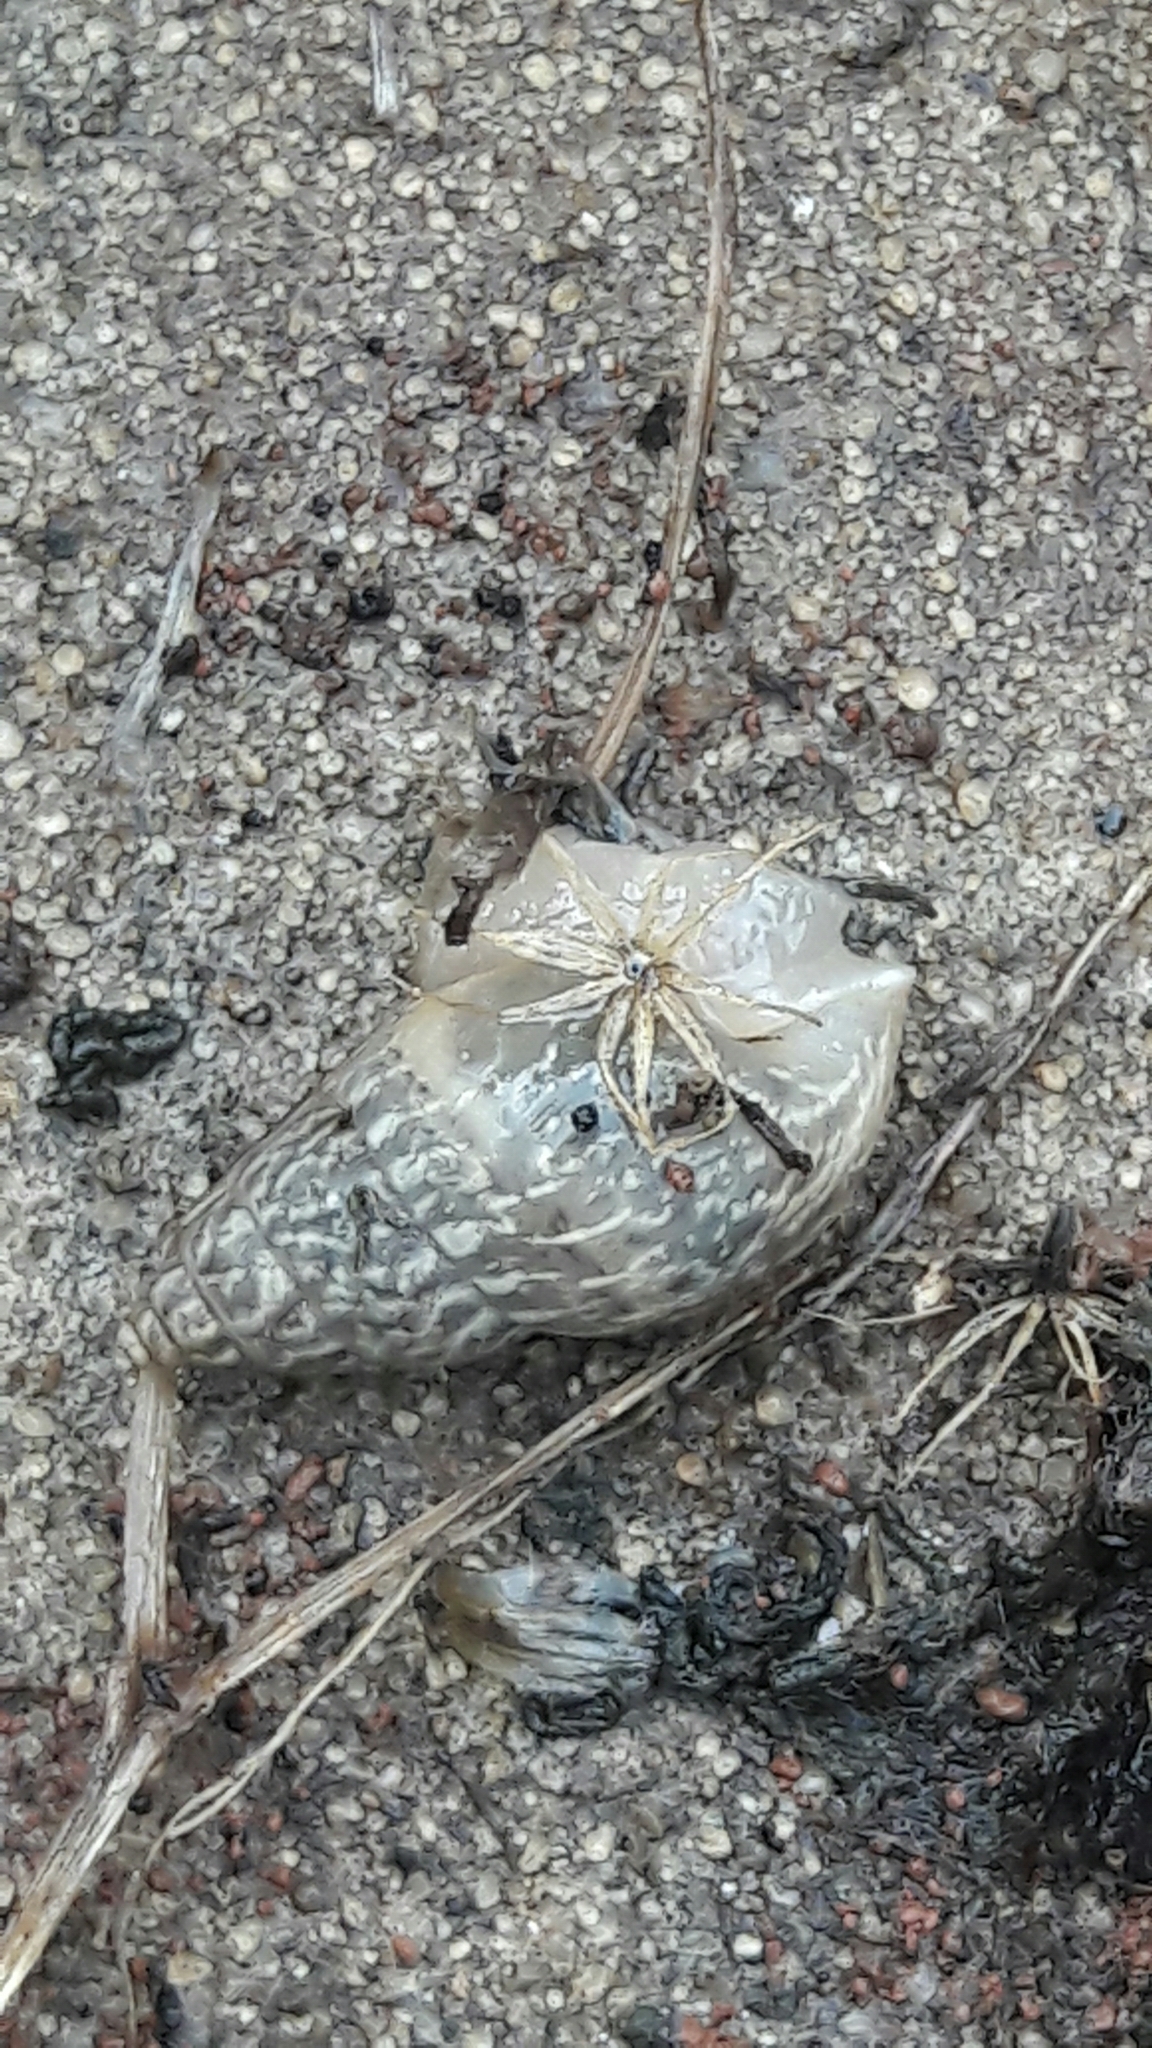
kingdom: Animalia
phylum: Mollusca
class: Gastropoda
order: Stylommatophora
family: Bulimulidae
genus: Bulimulus
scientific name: Bulimulus tenuissimus
